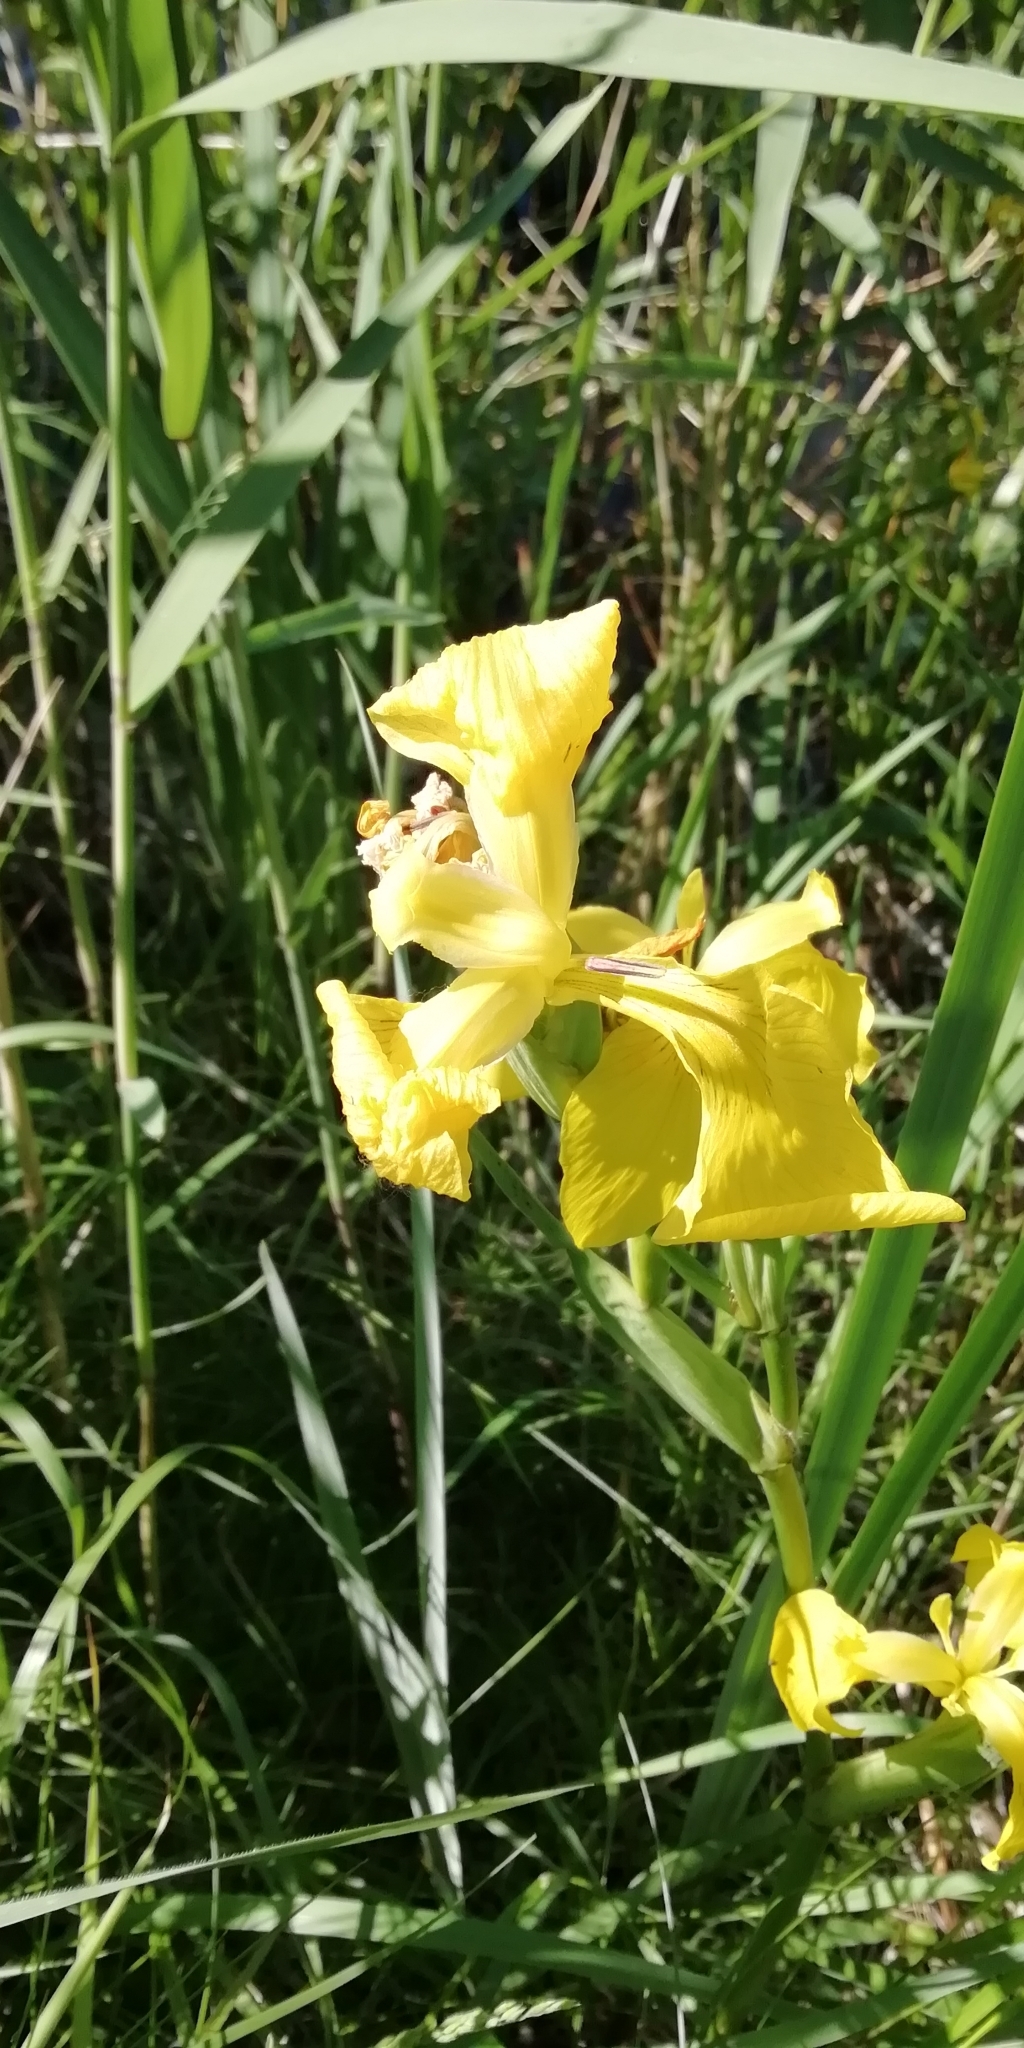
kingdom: Plantae
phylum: Tracheophyta
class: Liliopsida
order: Asparagales
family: Iridaceae
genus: Iris
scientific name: Iris pseudacorus
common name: Yellow flag
